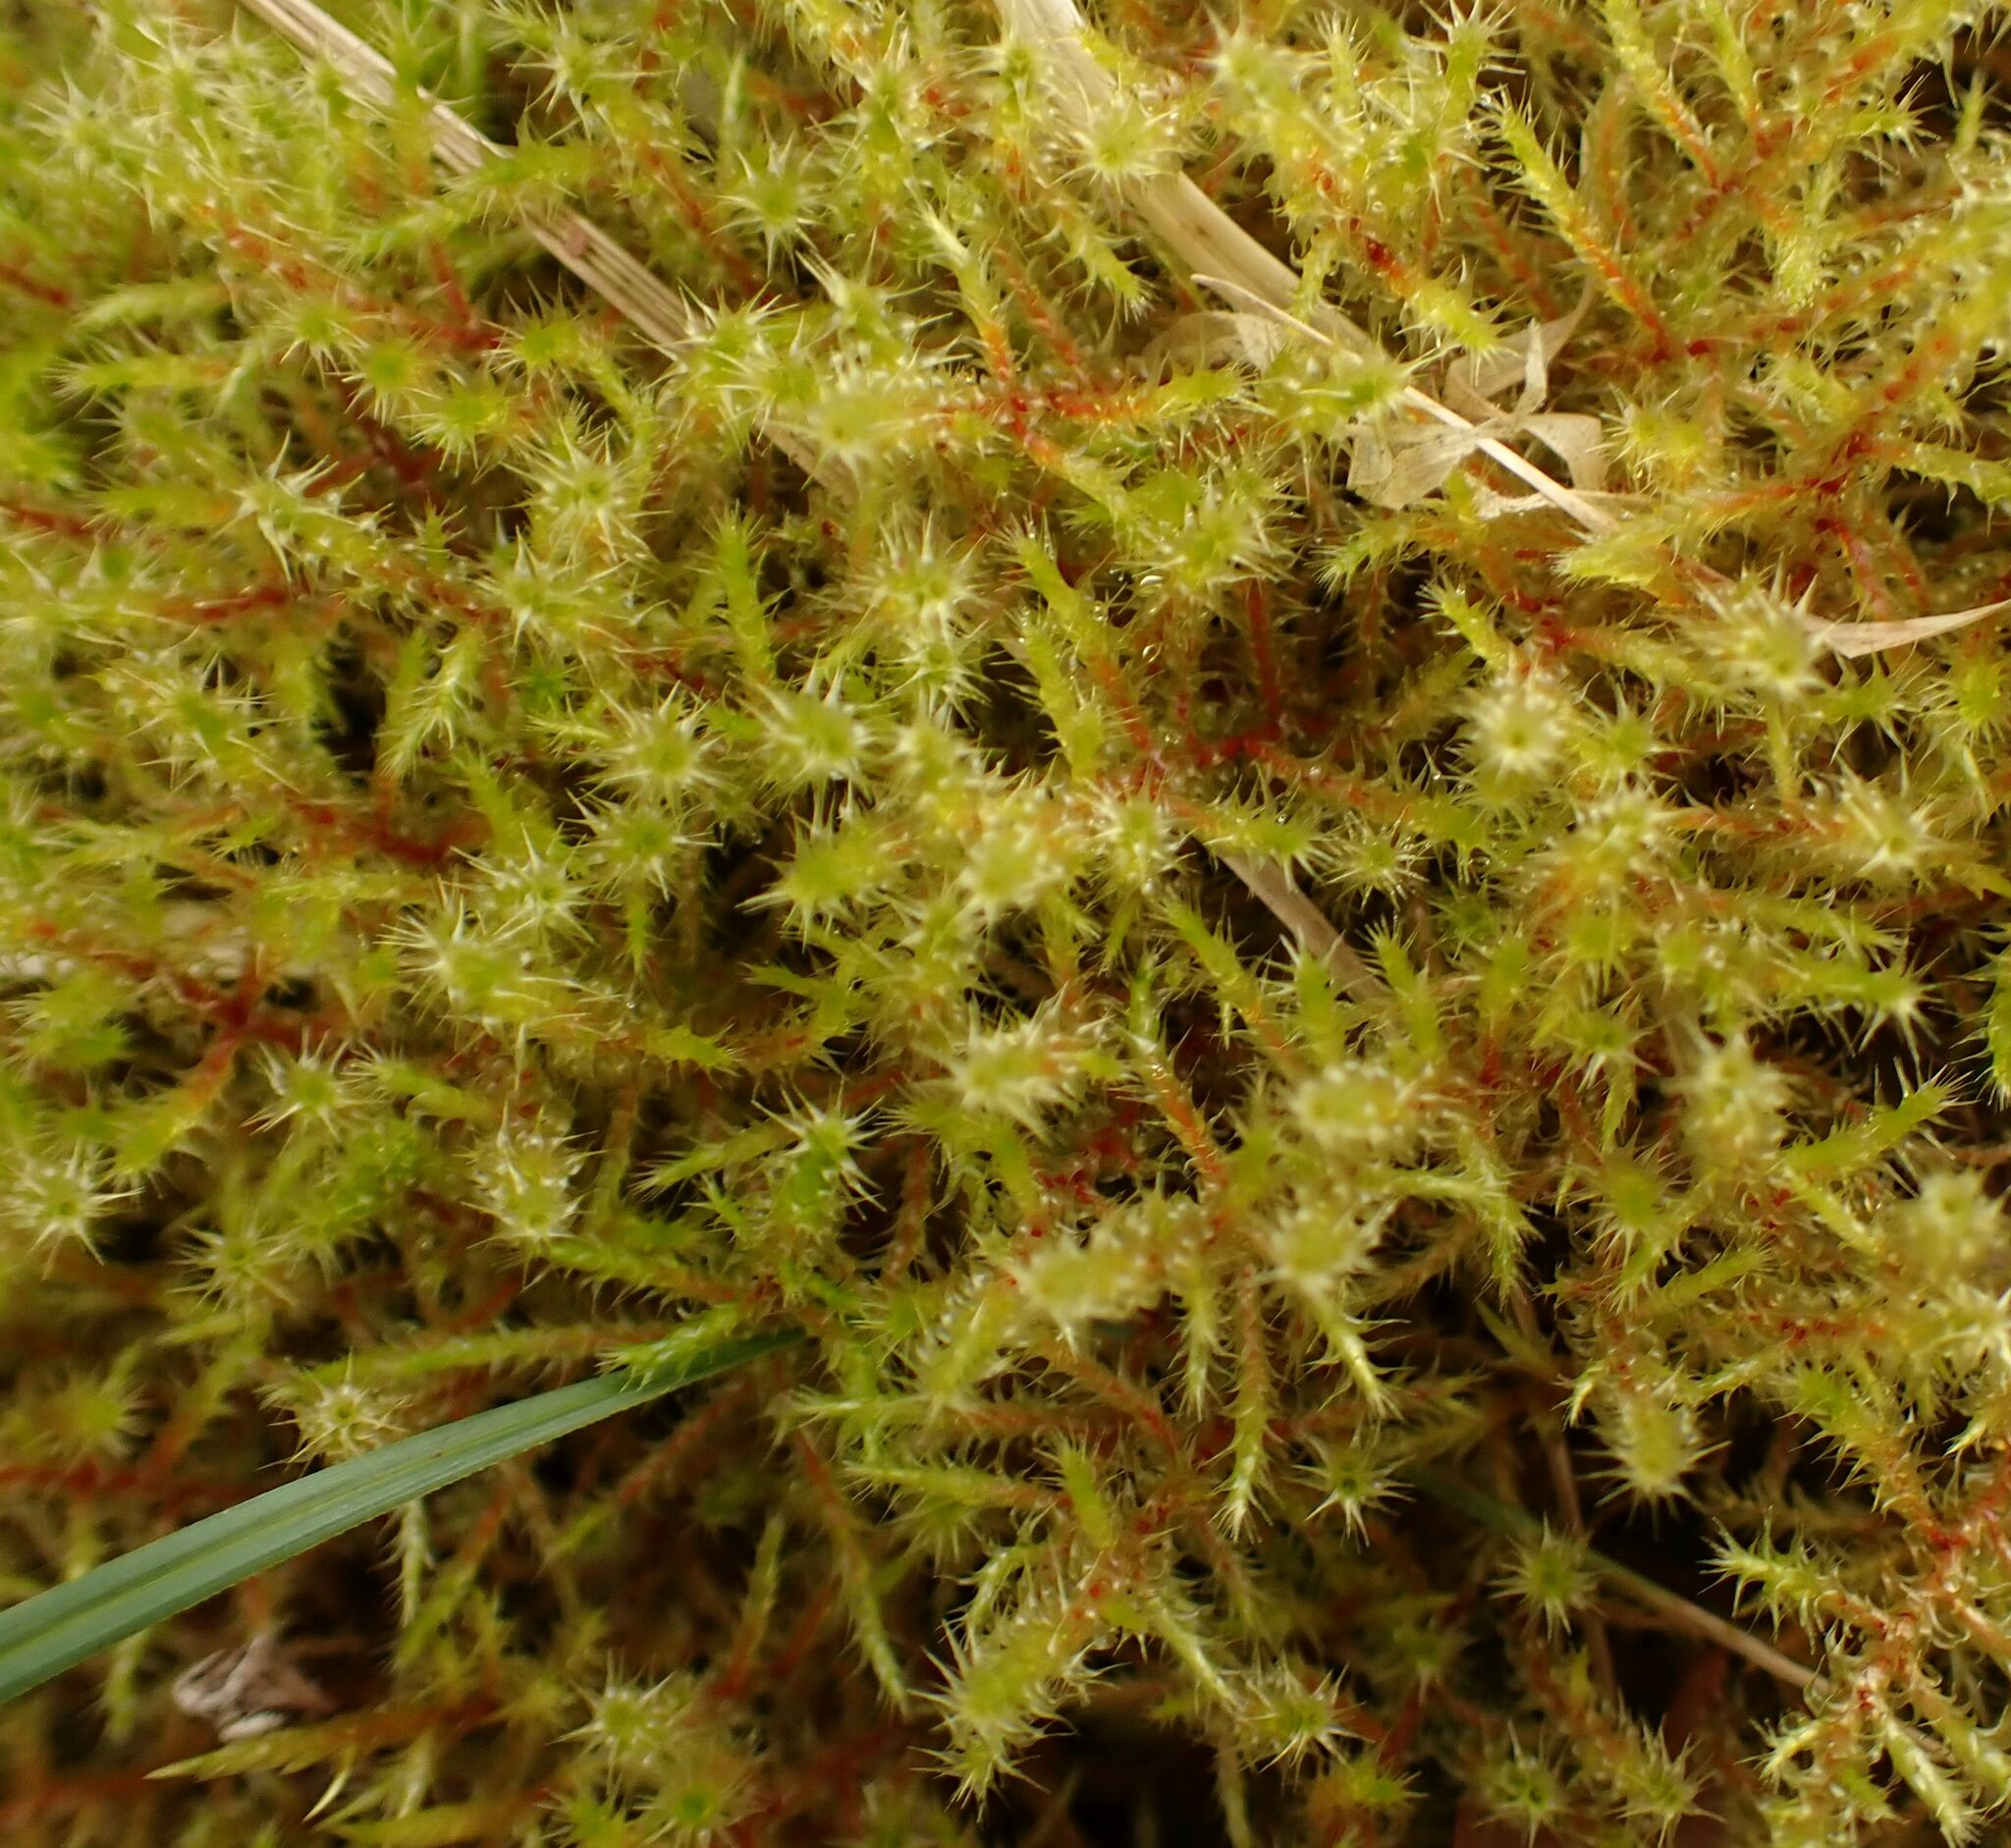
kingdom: Plantae
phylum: Bryophyta
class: Bryopsida
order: Hypnales
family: Hylocomiaceae
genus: Rhytidiadelphus
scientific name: Rhytidiadelphus squarrosus
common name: Springy turf-moss
